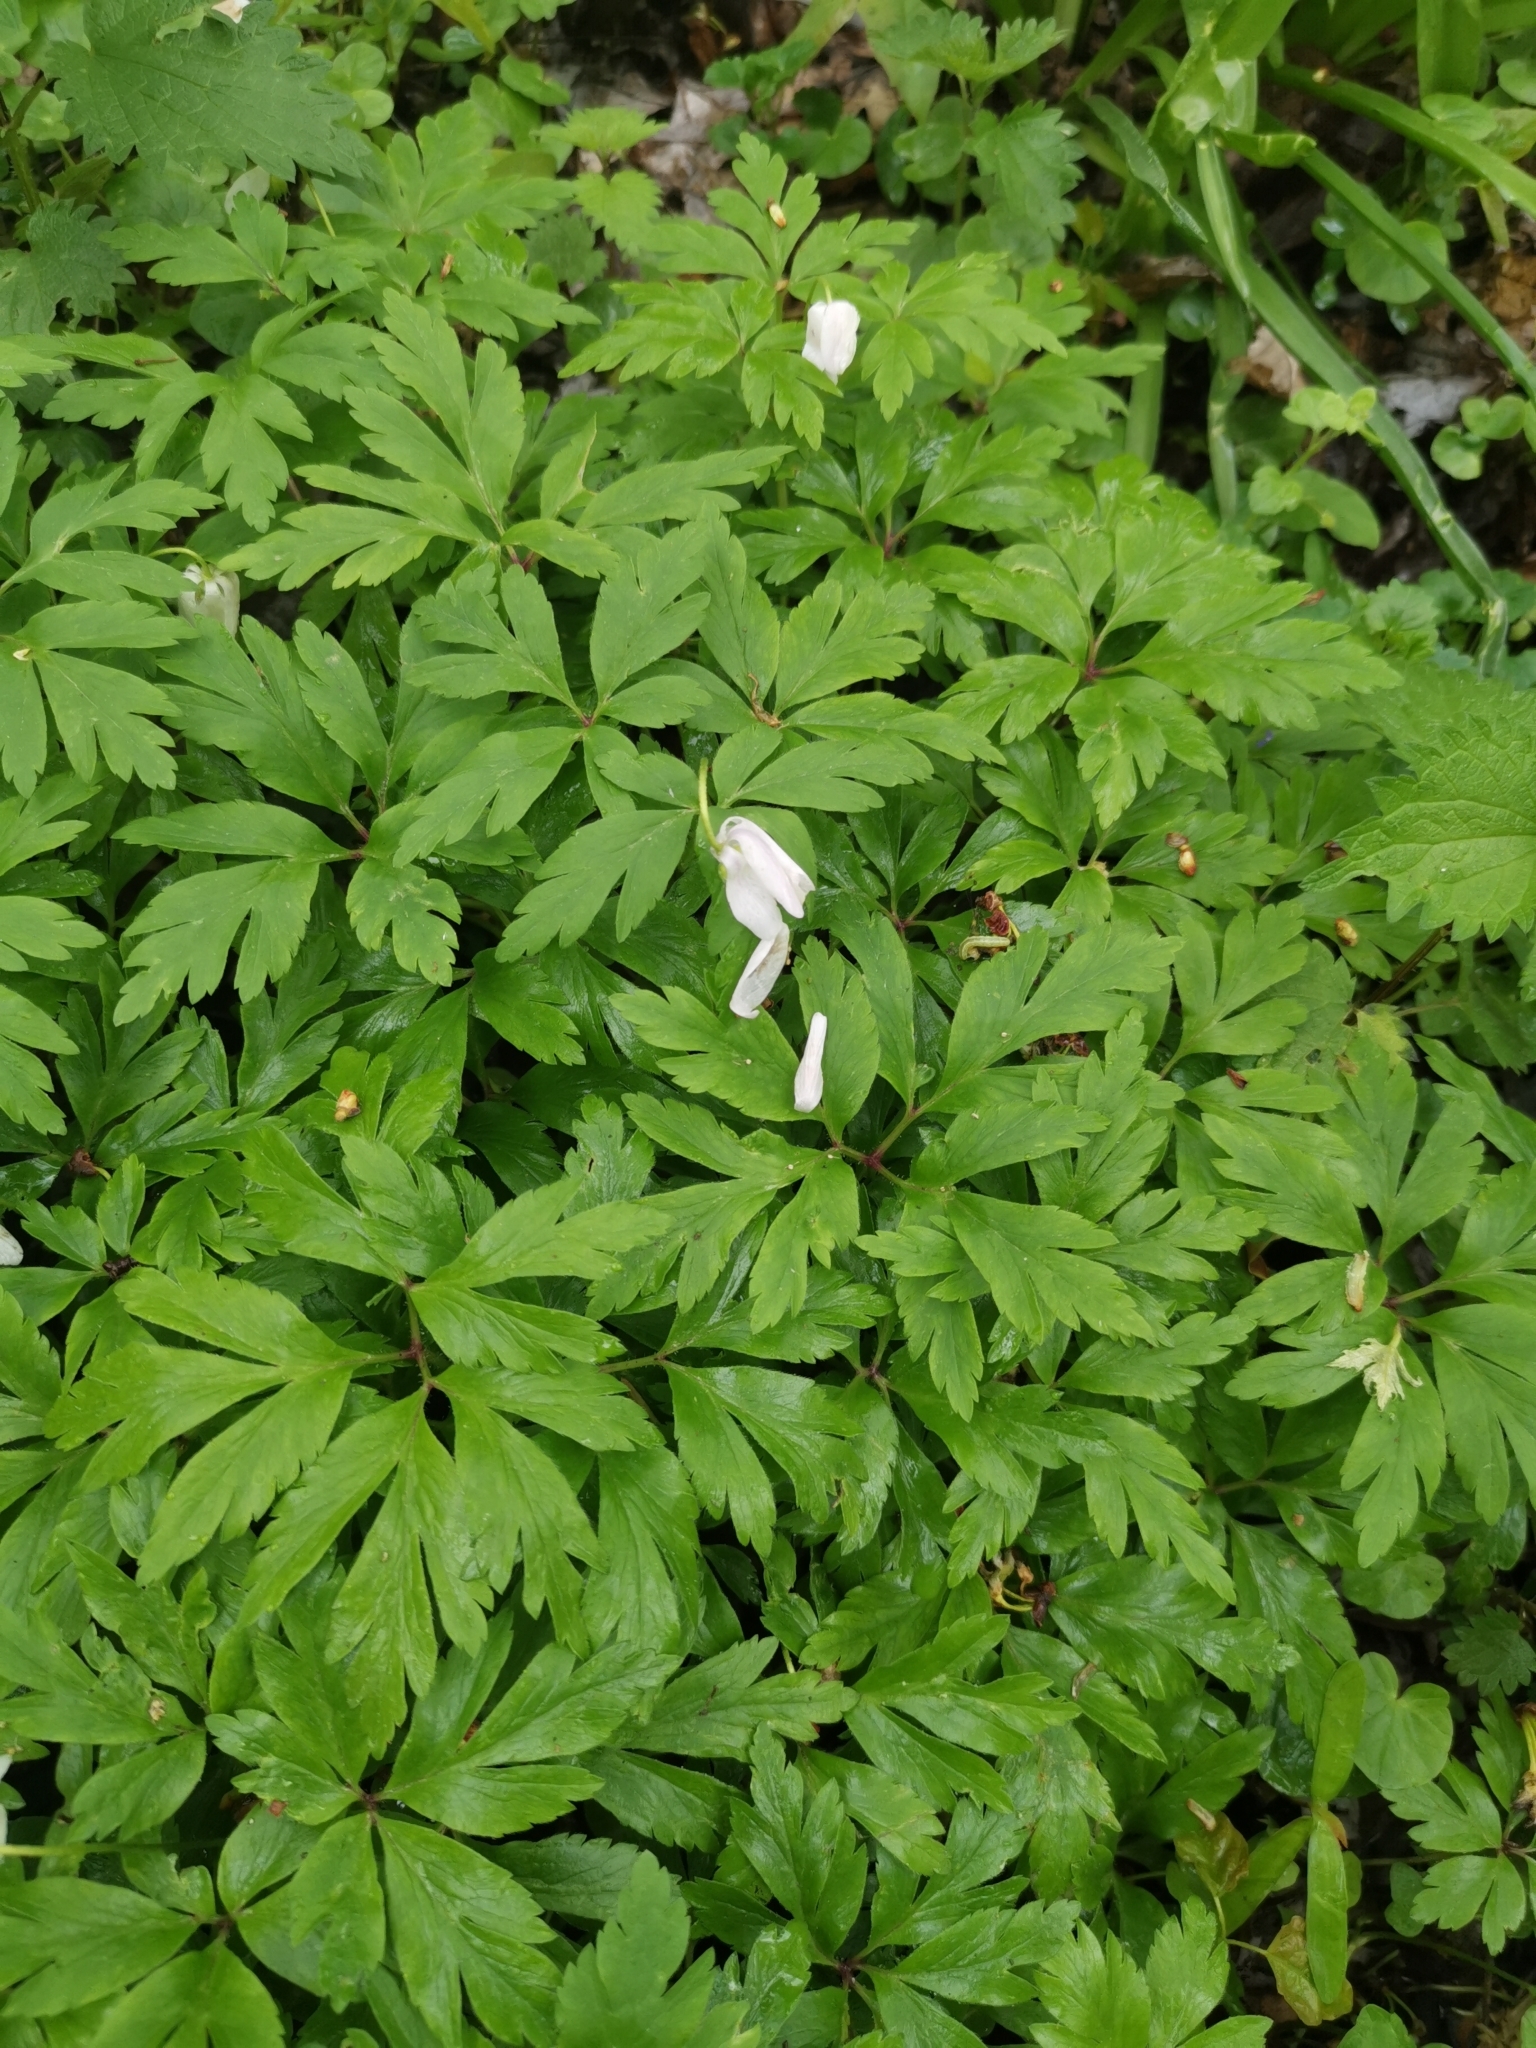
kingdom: Plantae
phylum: Tracheophyta
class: Magnoliopsida
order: Ranunculales
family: Ranunculaceae
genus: Anemone
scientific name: Anemone nemorosa
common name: Wood anemone
